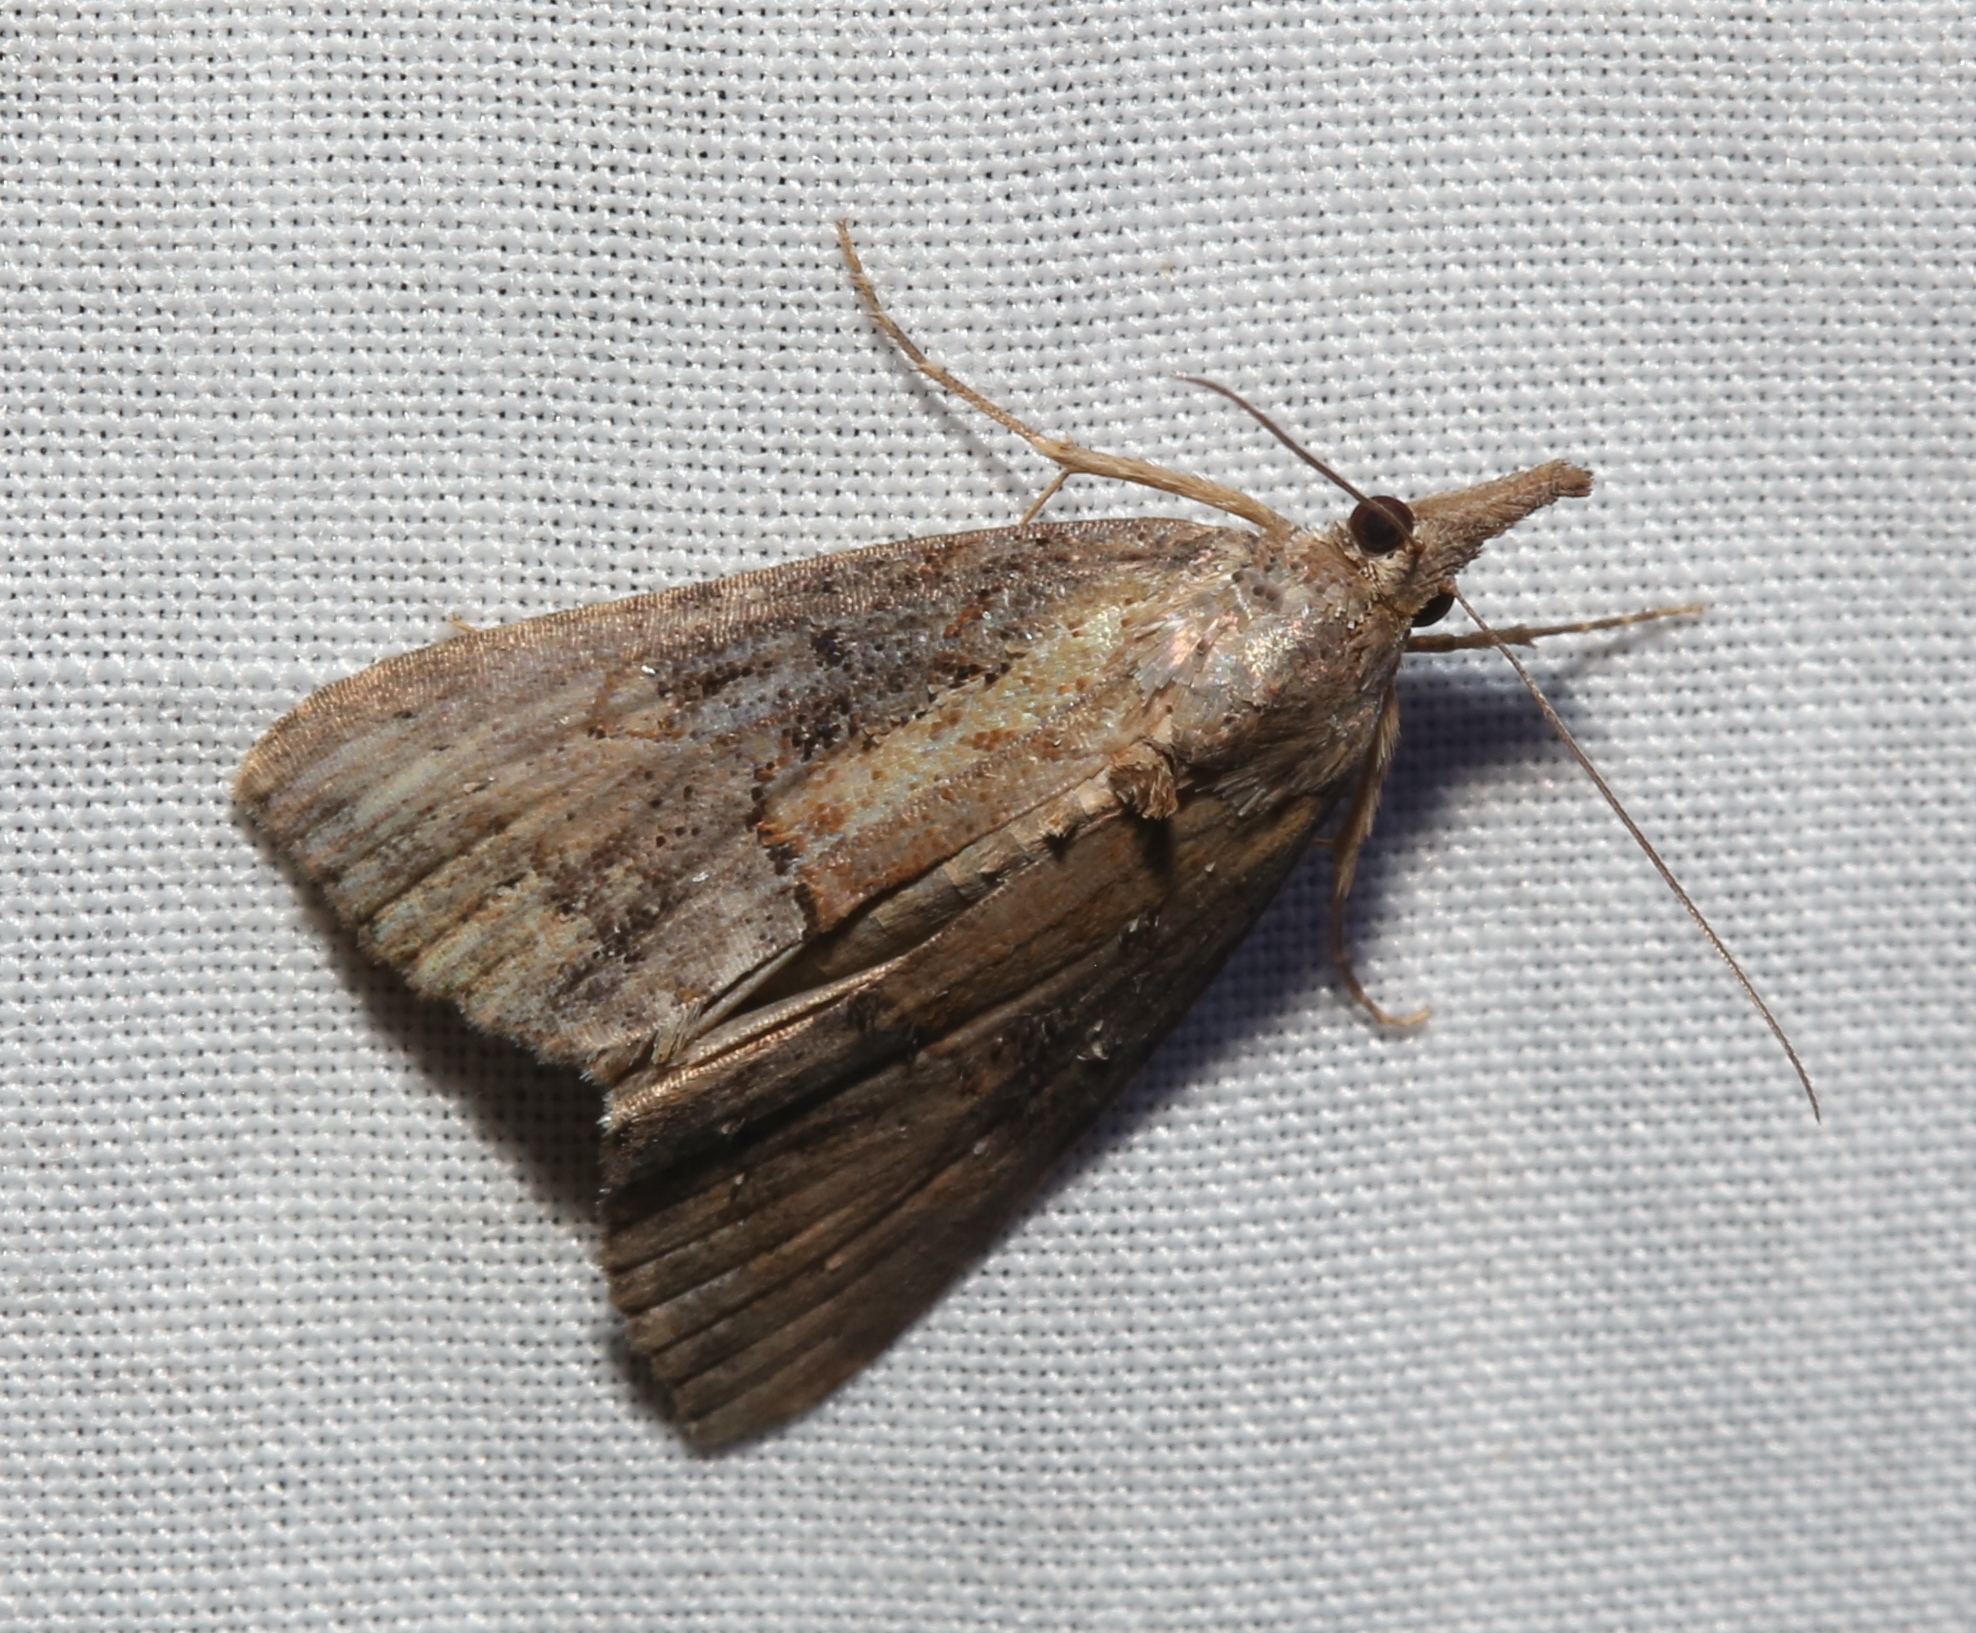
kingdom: Animalia
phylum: Arthropoda
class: Insecta
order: Lepidoptera
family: Erebidae
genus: Hypena
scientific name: Hypena scabra
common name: Green cloverworm
